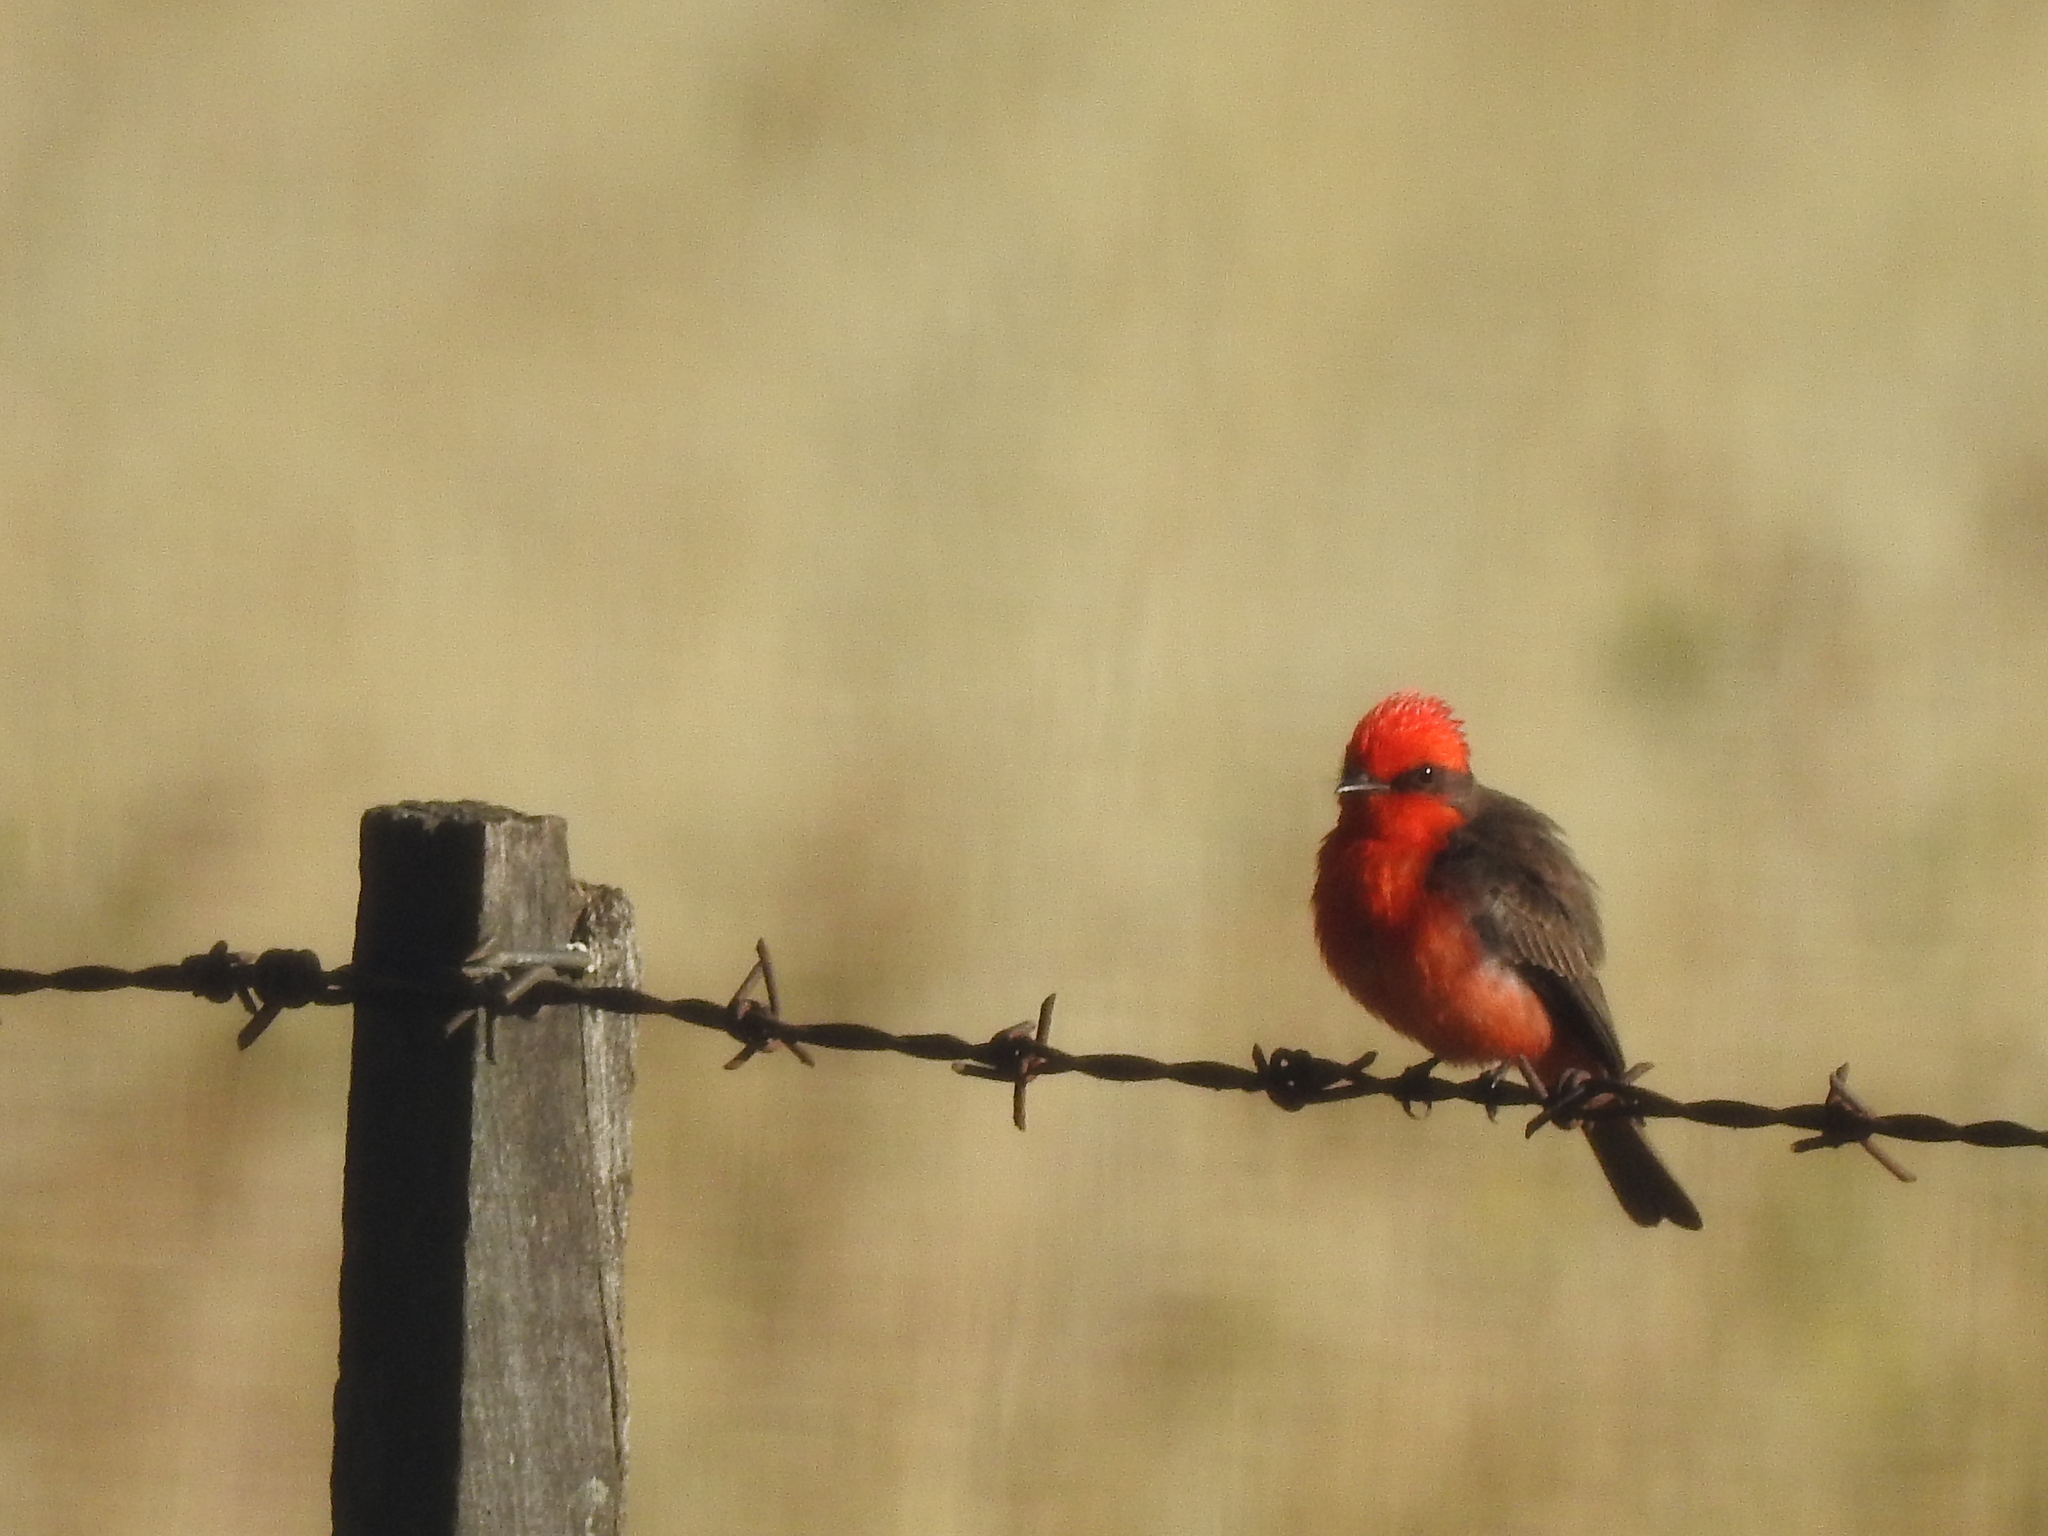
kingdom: Animalia
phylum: Chordata
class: Aves
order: Passeriformes
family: Tyrannidae
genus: Pyrocephalus
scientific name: Pyrocephalus rubinus
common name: Vermilion flycatcher
